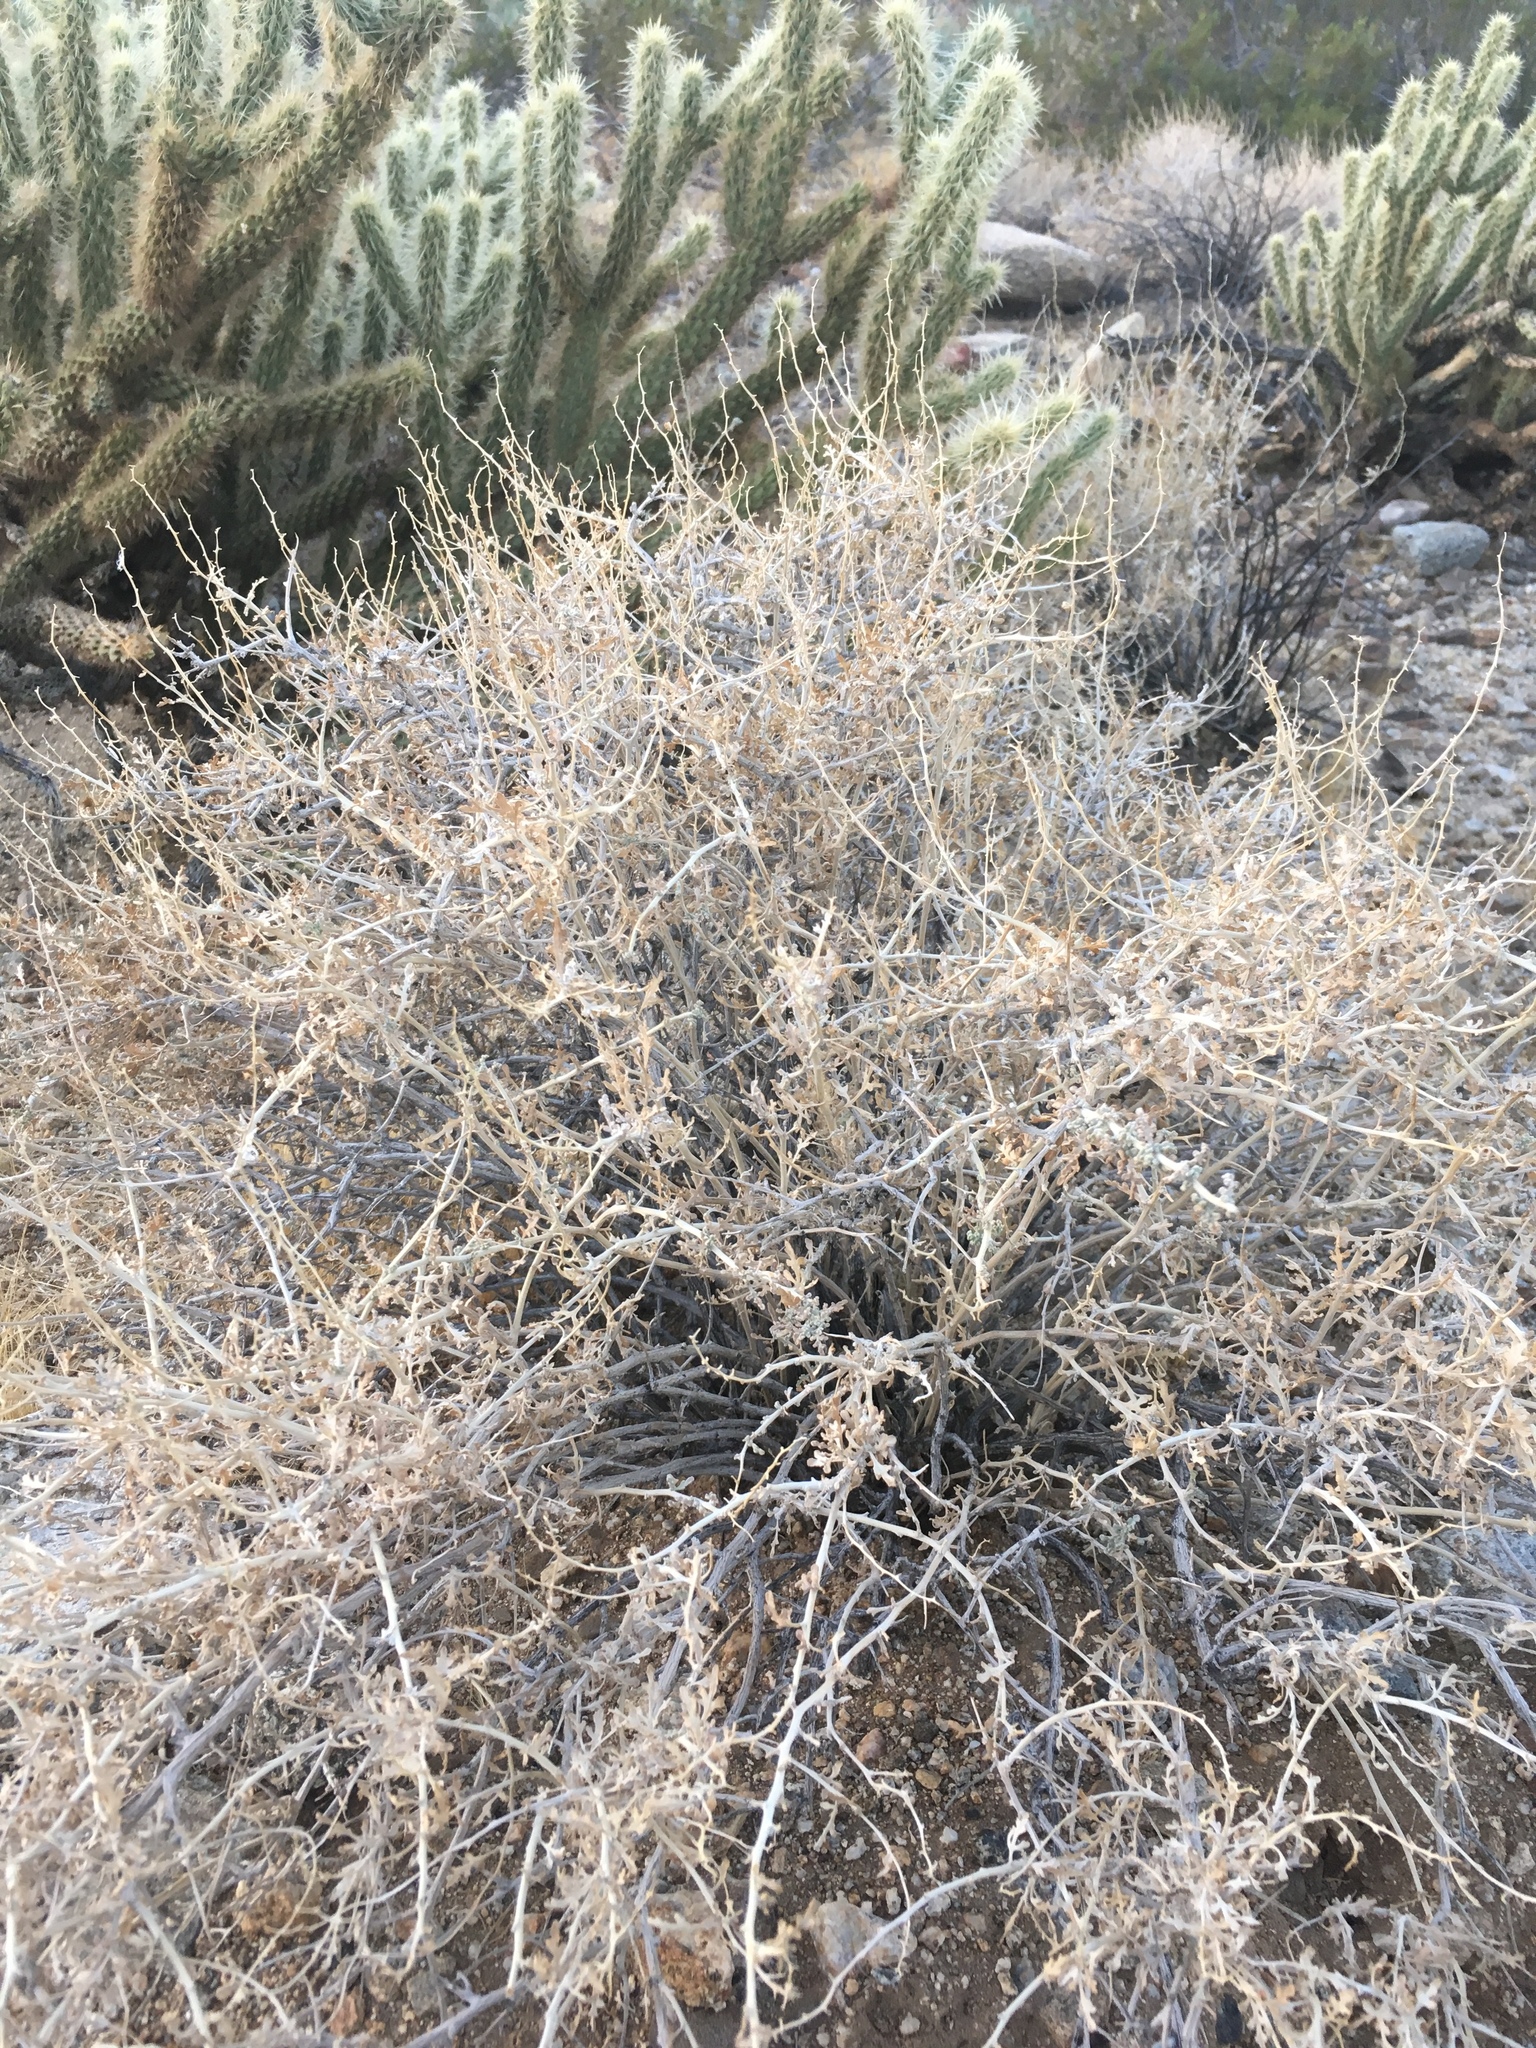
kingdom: Plantae
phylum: Tracheophyta
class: Magnoliopsida
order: Asterales
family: Asteraceae
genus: Ambrosia
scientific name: Ambrosia dumosa
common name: Bur-sage
